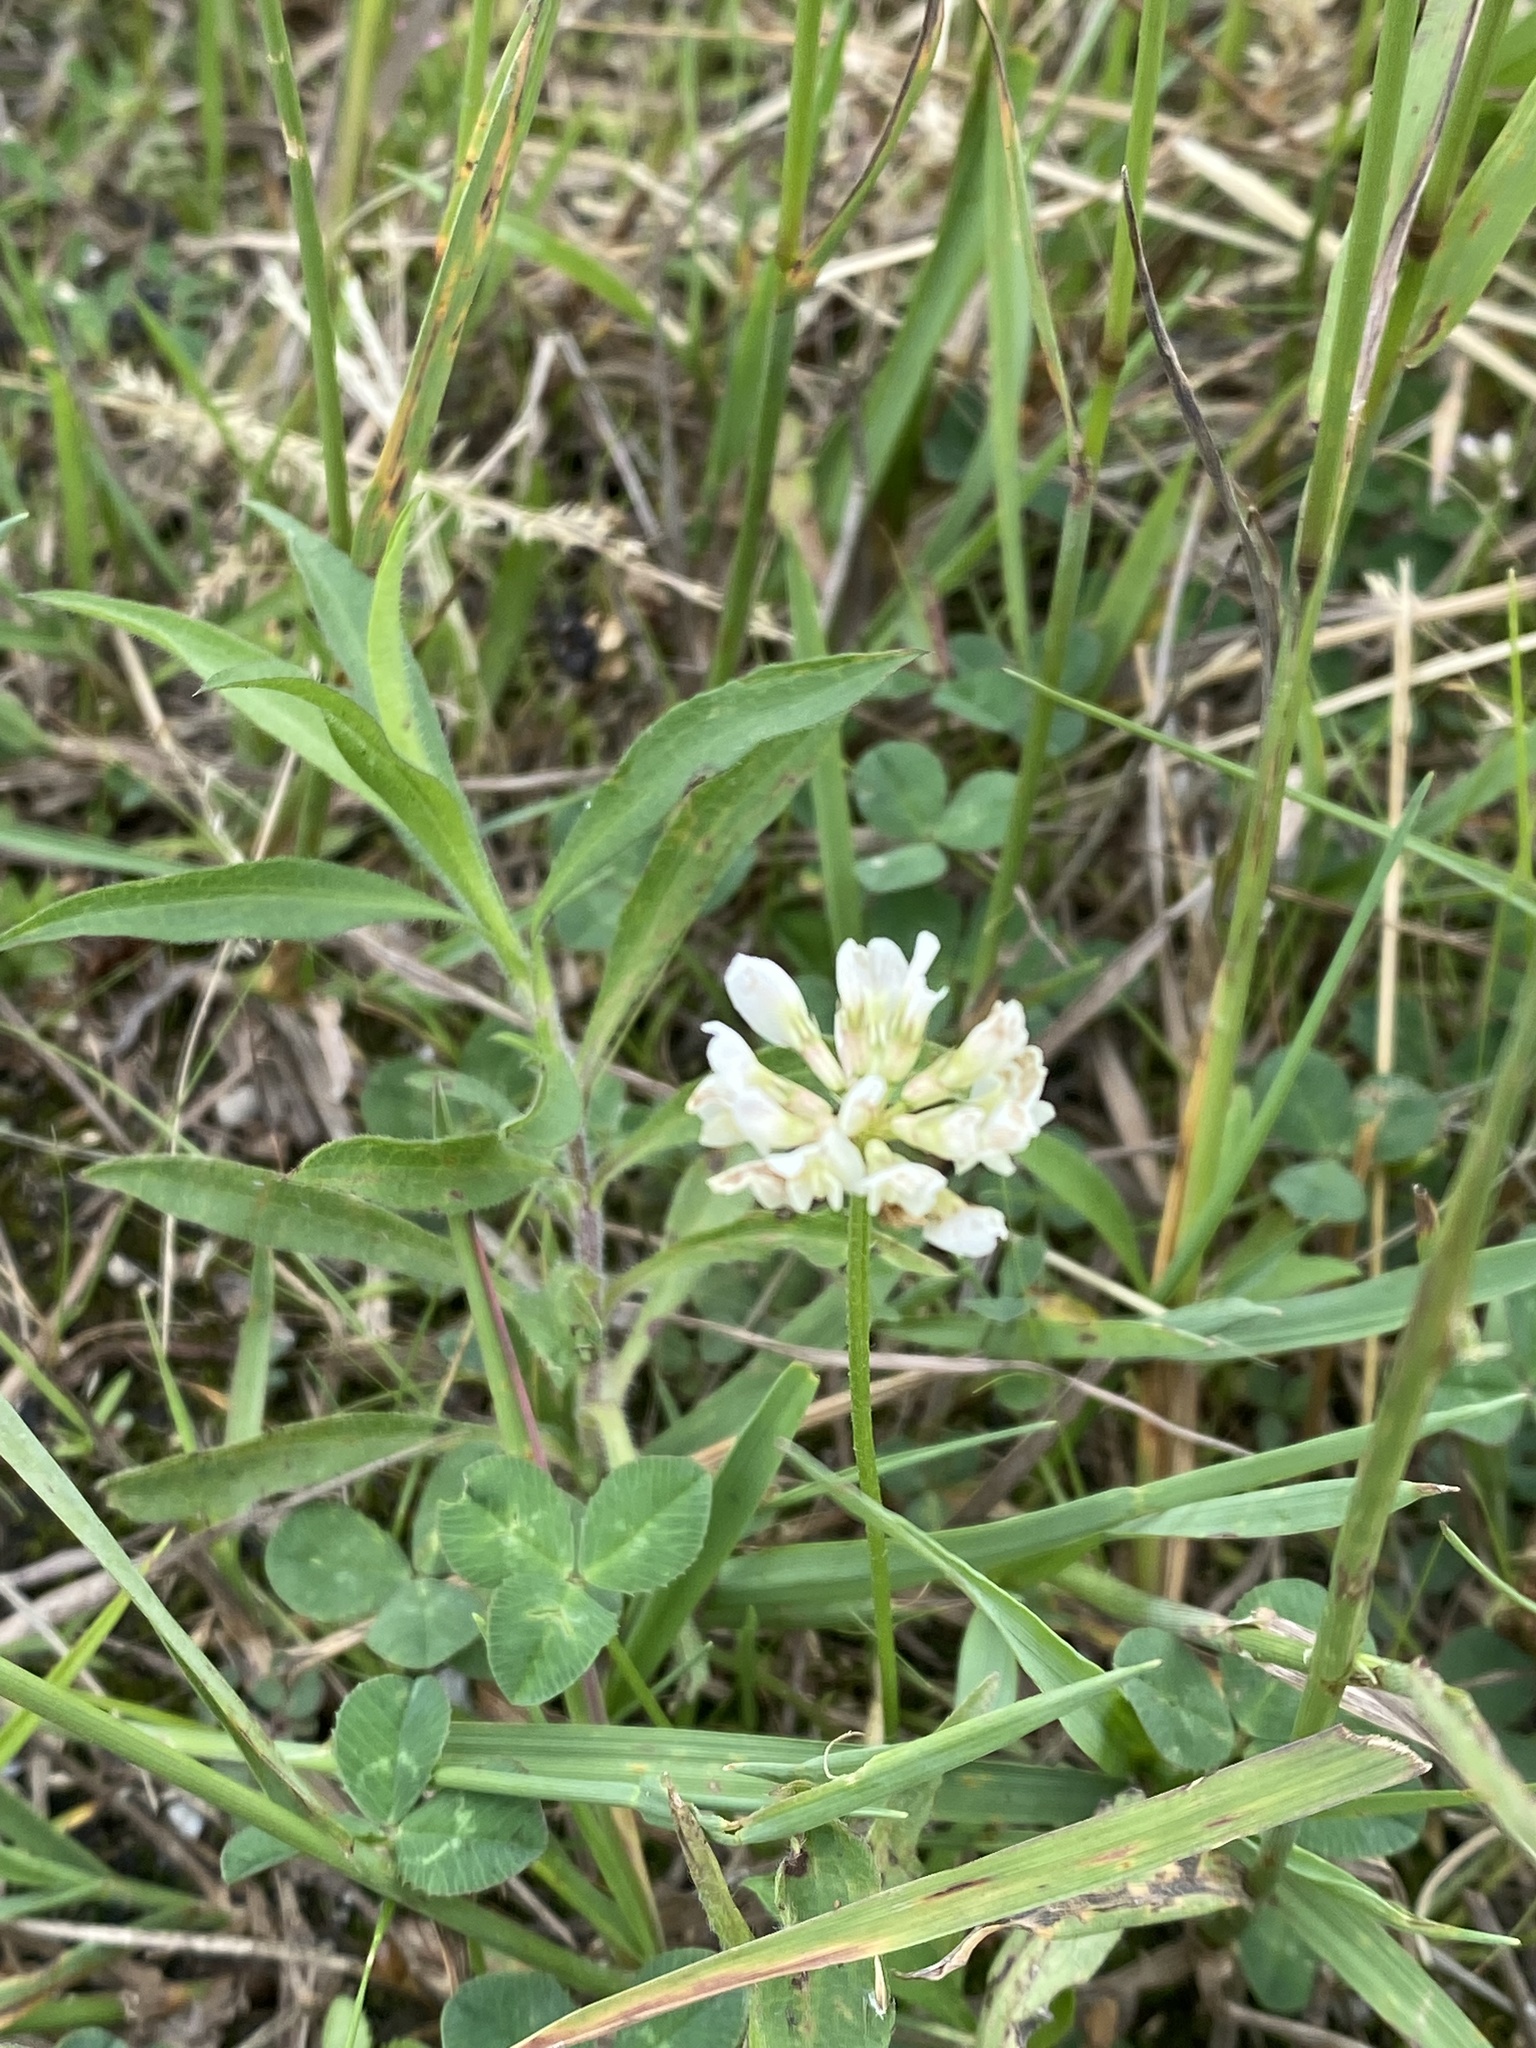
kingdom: Plantae
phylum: Tracheophyta
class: Magnoliopsida
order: Fabales
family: Fabaceae
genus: Trifolium
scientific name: Trifolium repens
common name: White clover
